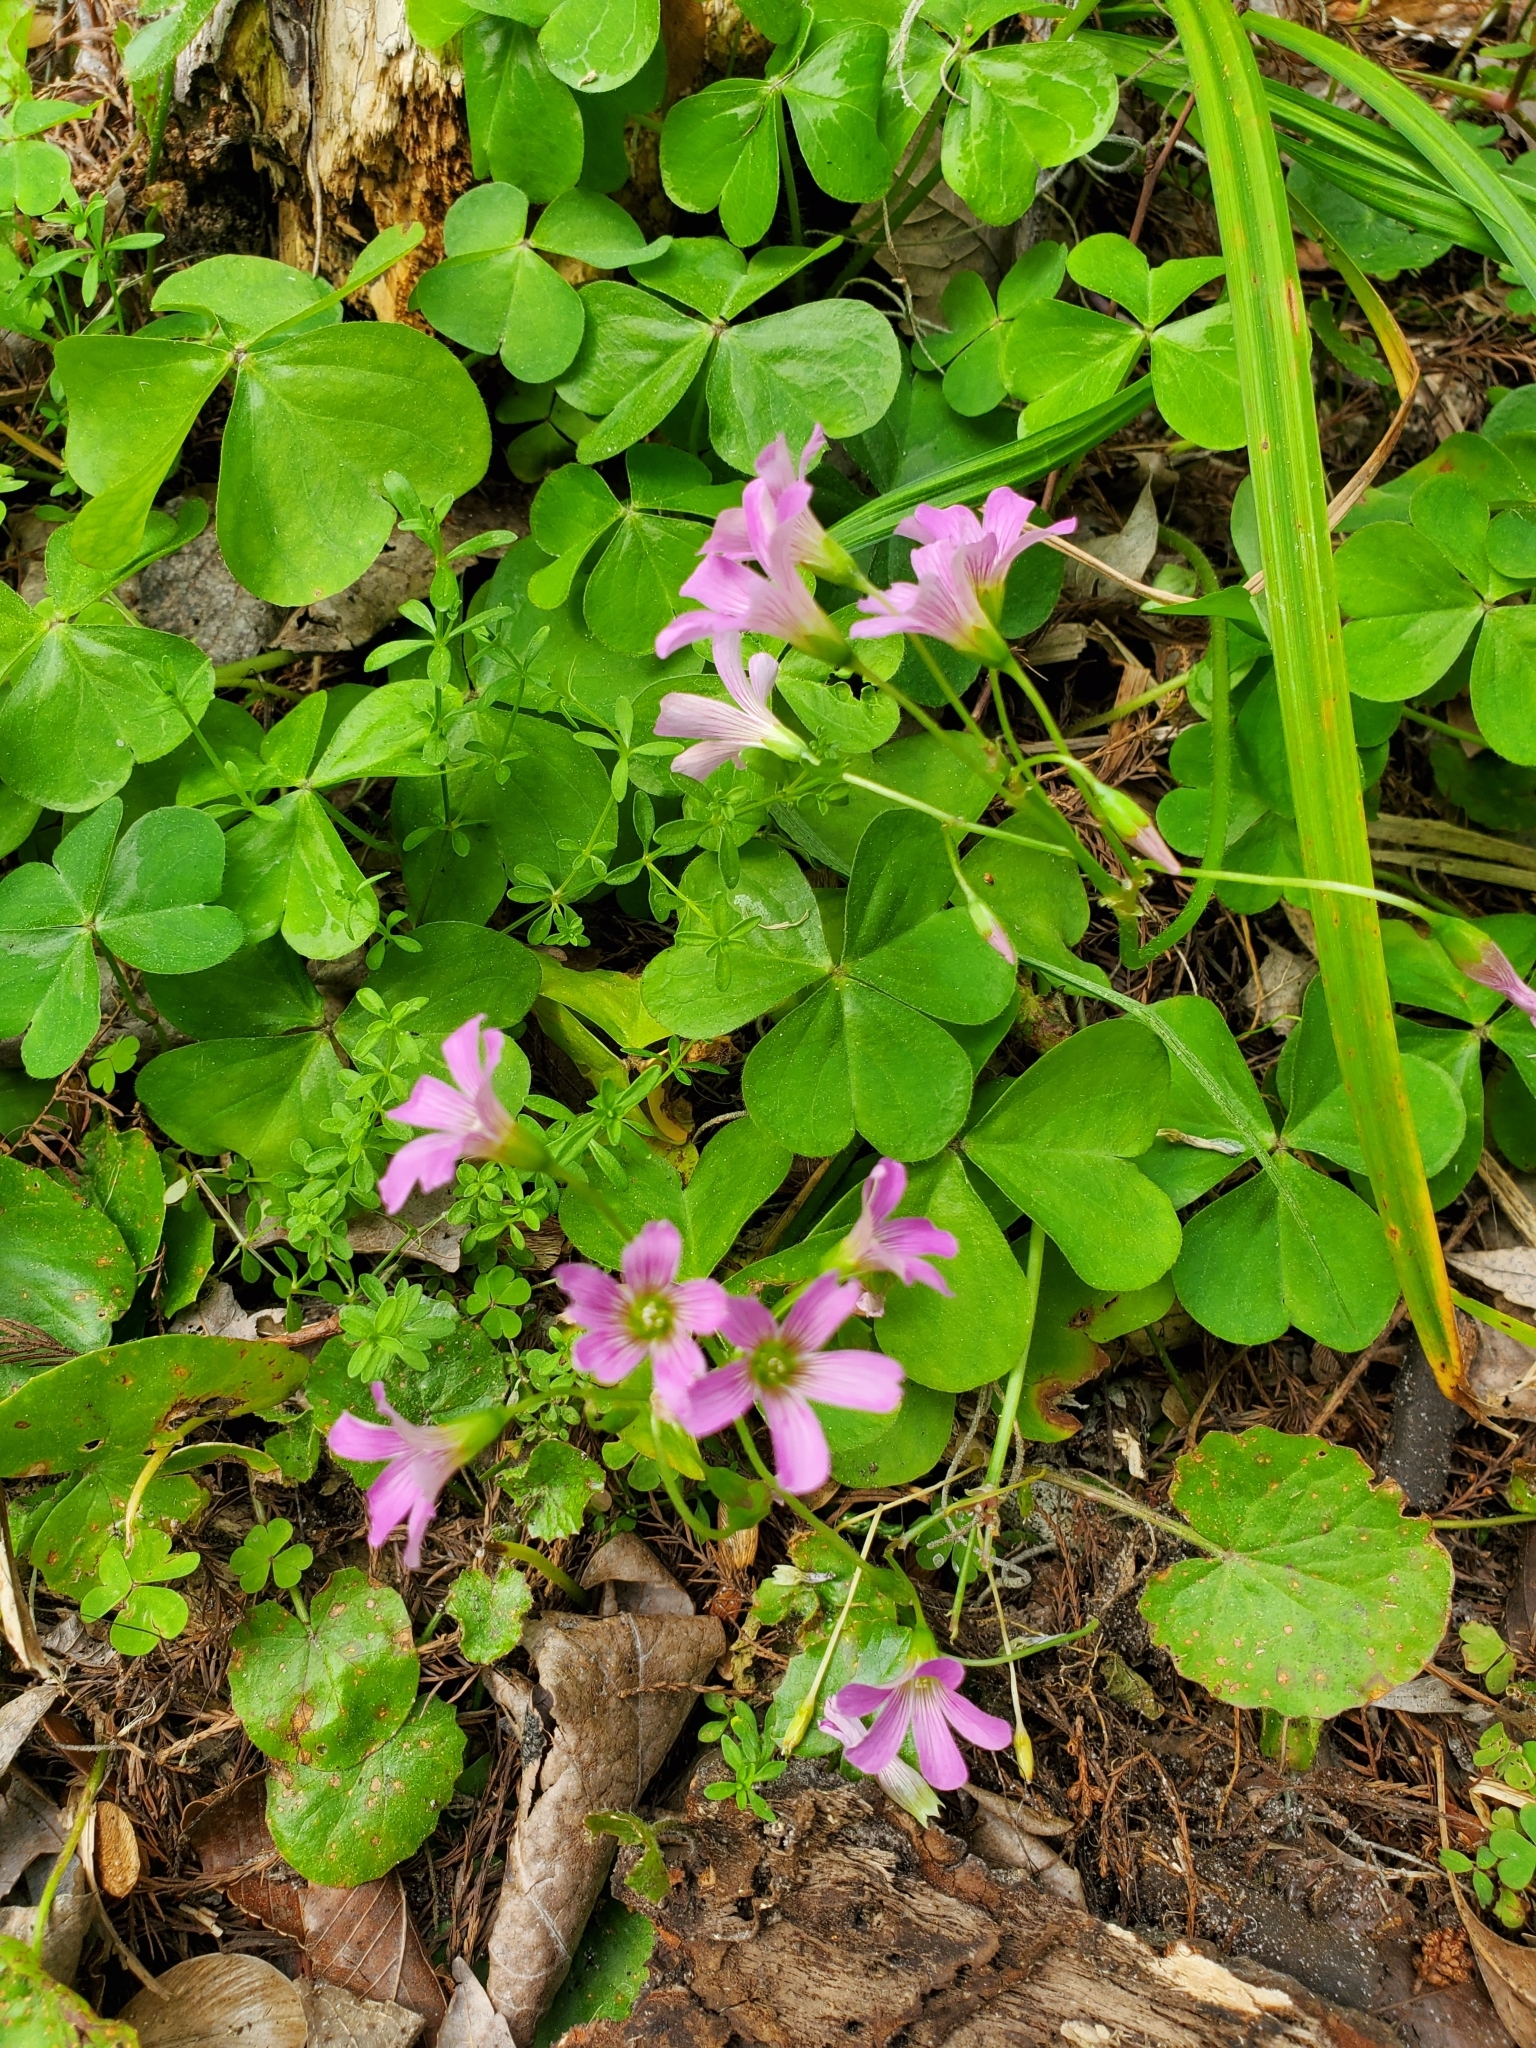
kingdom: Plantae
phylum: Tracheophyta
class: Magnoliopsida
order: Oxalidales
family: Oxalidaceae
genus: Oxalis
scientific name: Oxalis debilis
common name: Large-flowered pink-sorrel
